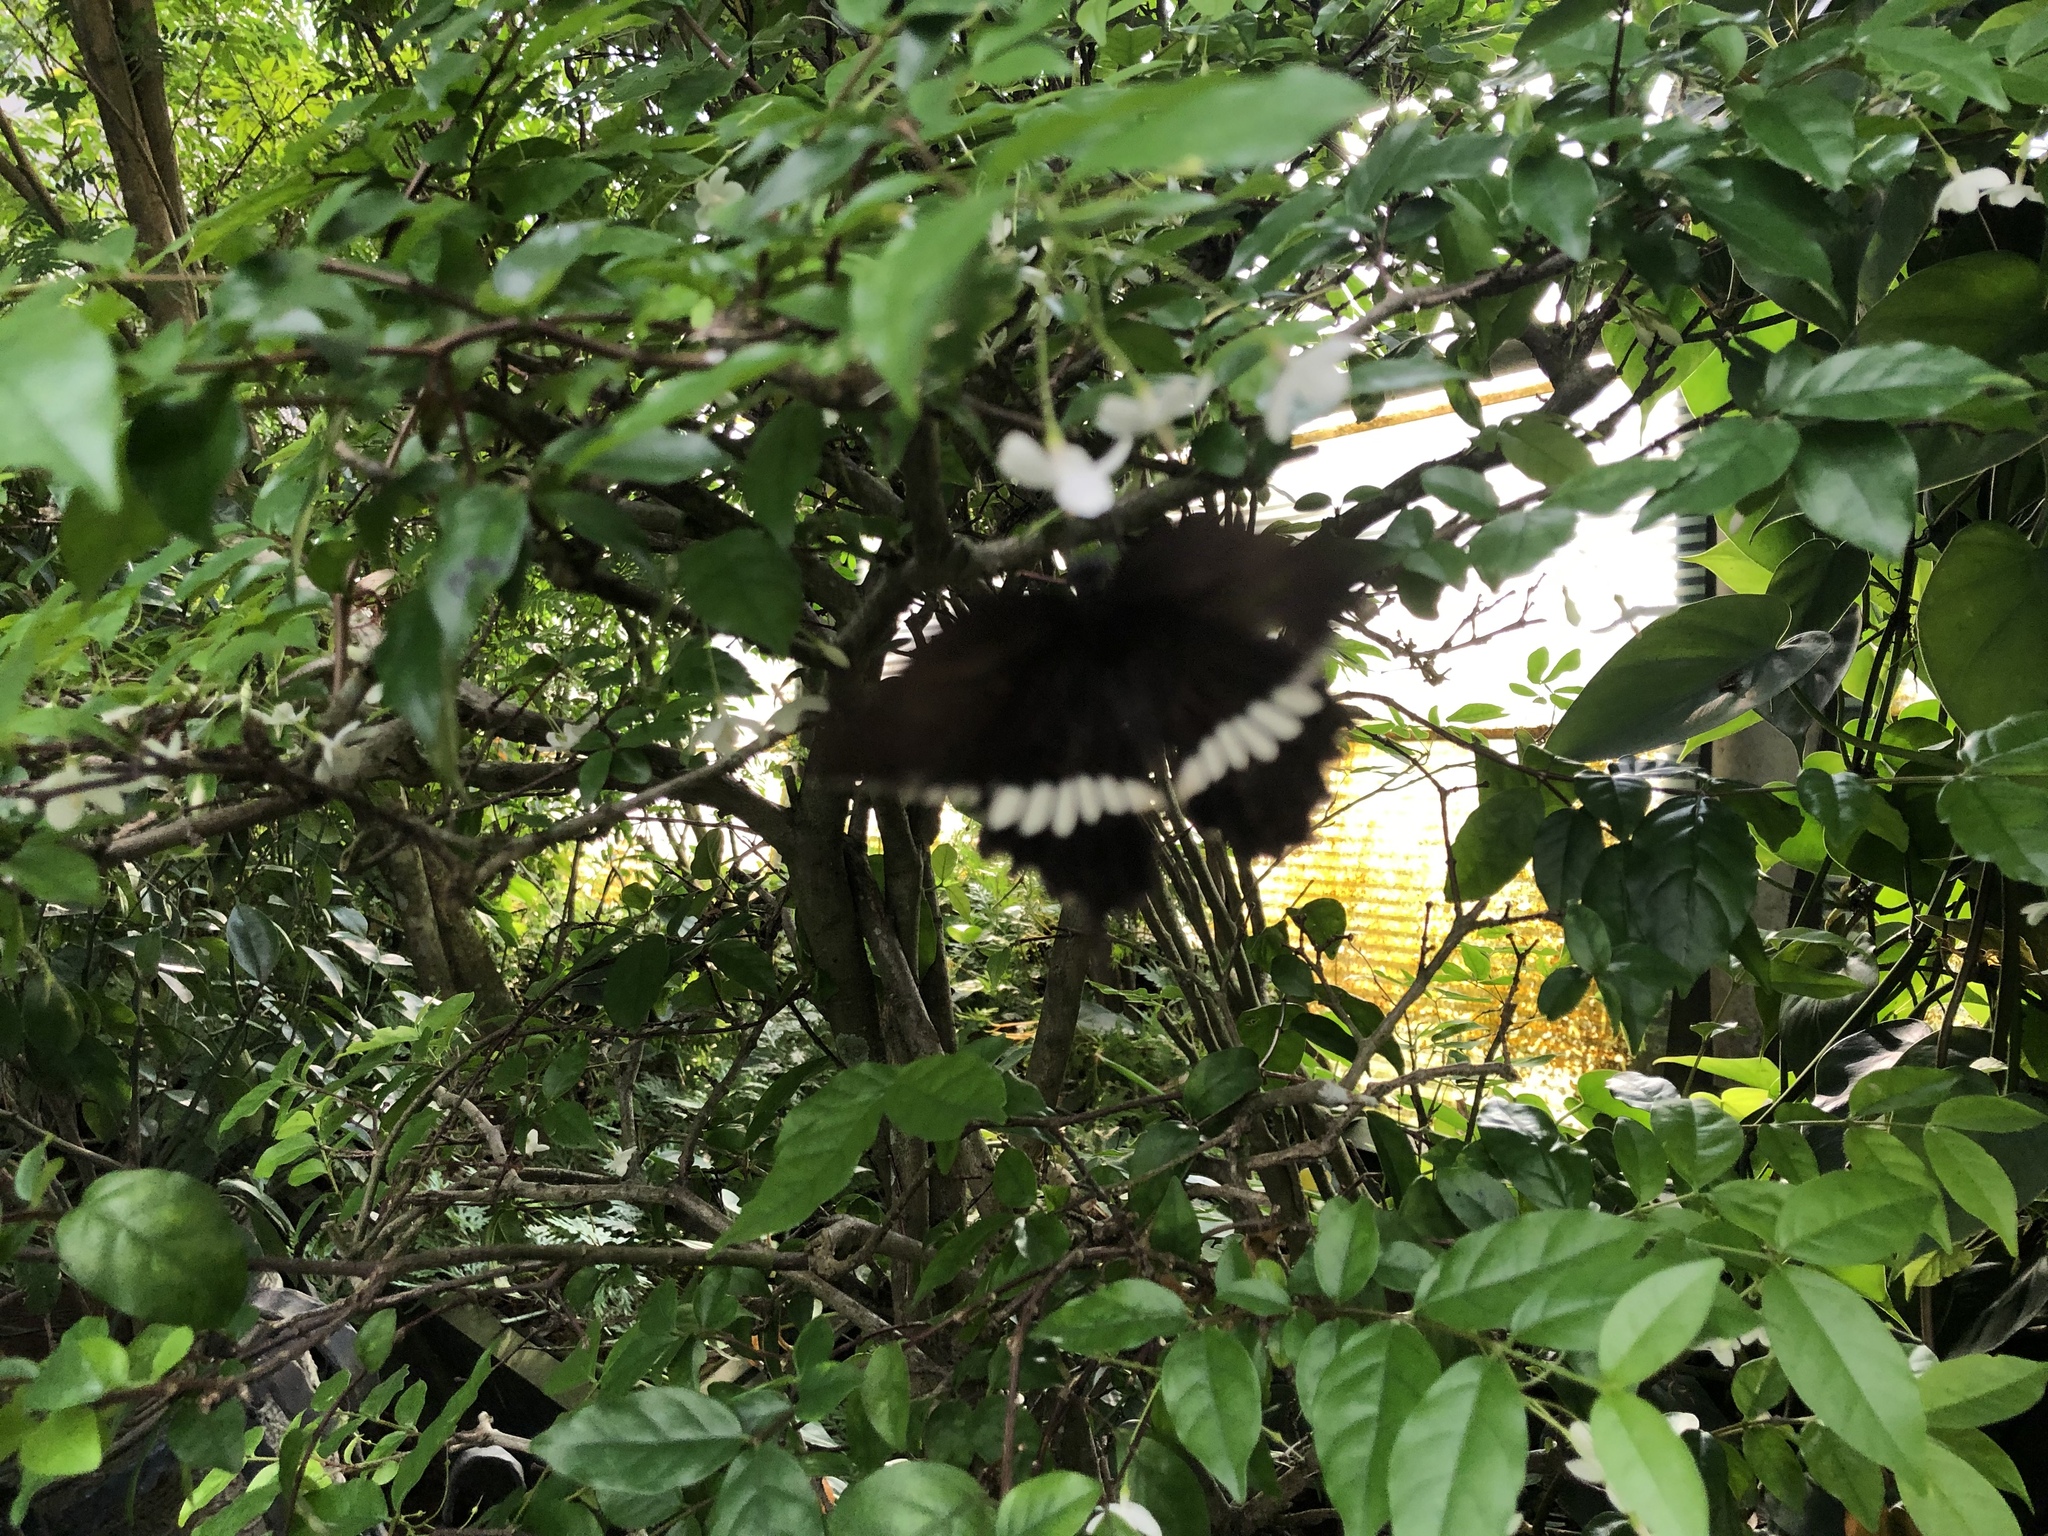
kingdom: Animalia
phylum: Arthropoda
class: Insecta
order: Lepidoptera
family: Papilionidae
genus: Papilio
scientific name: Papilio polytes
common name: Common mormon
